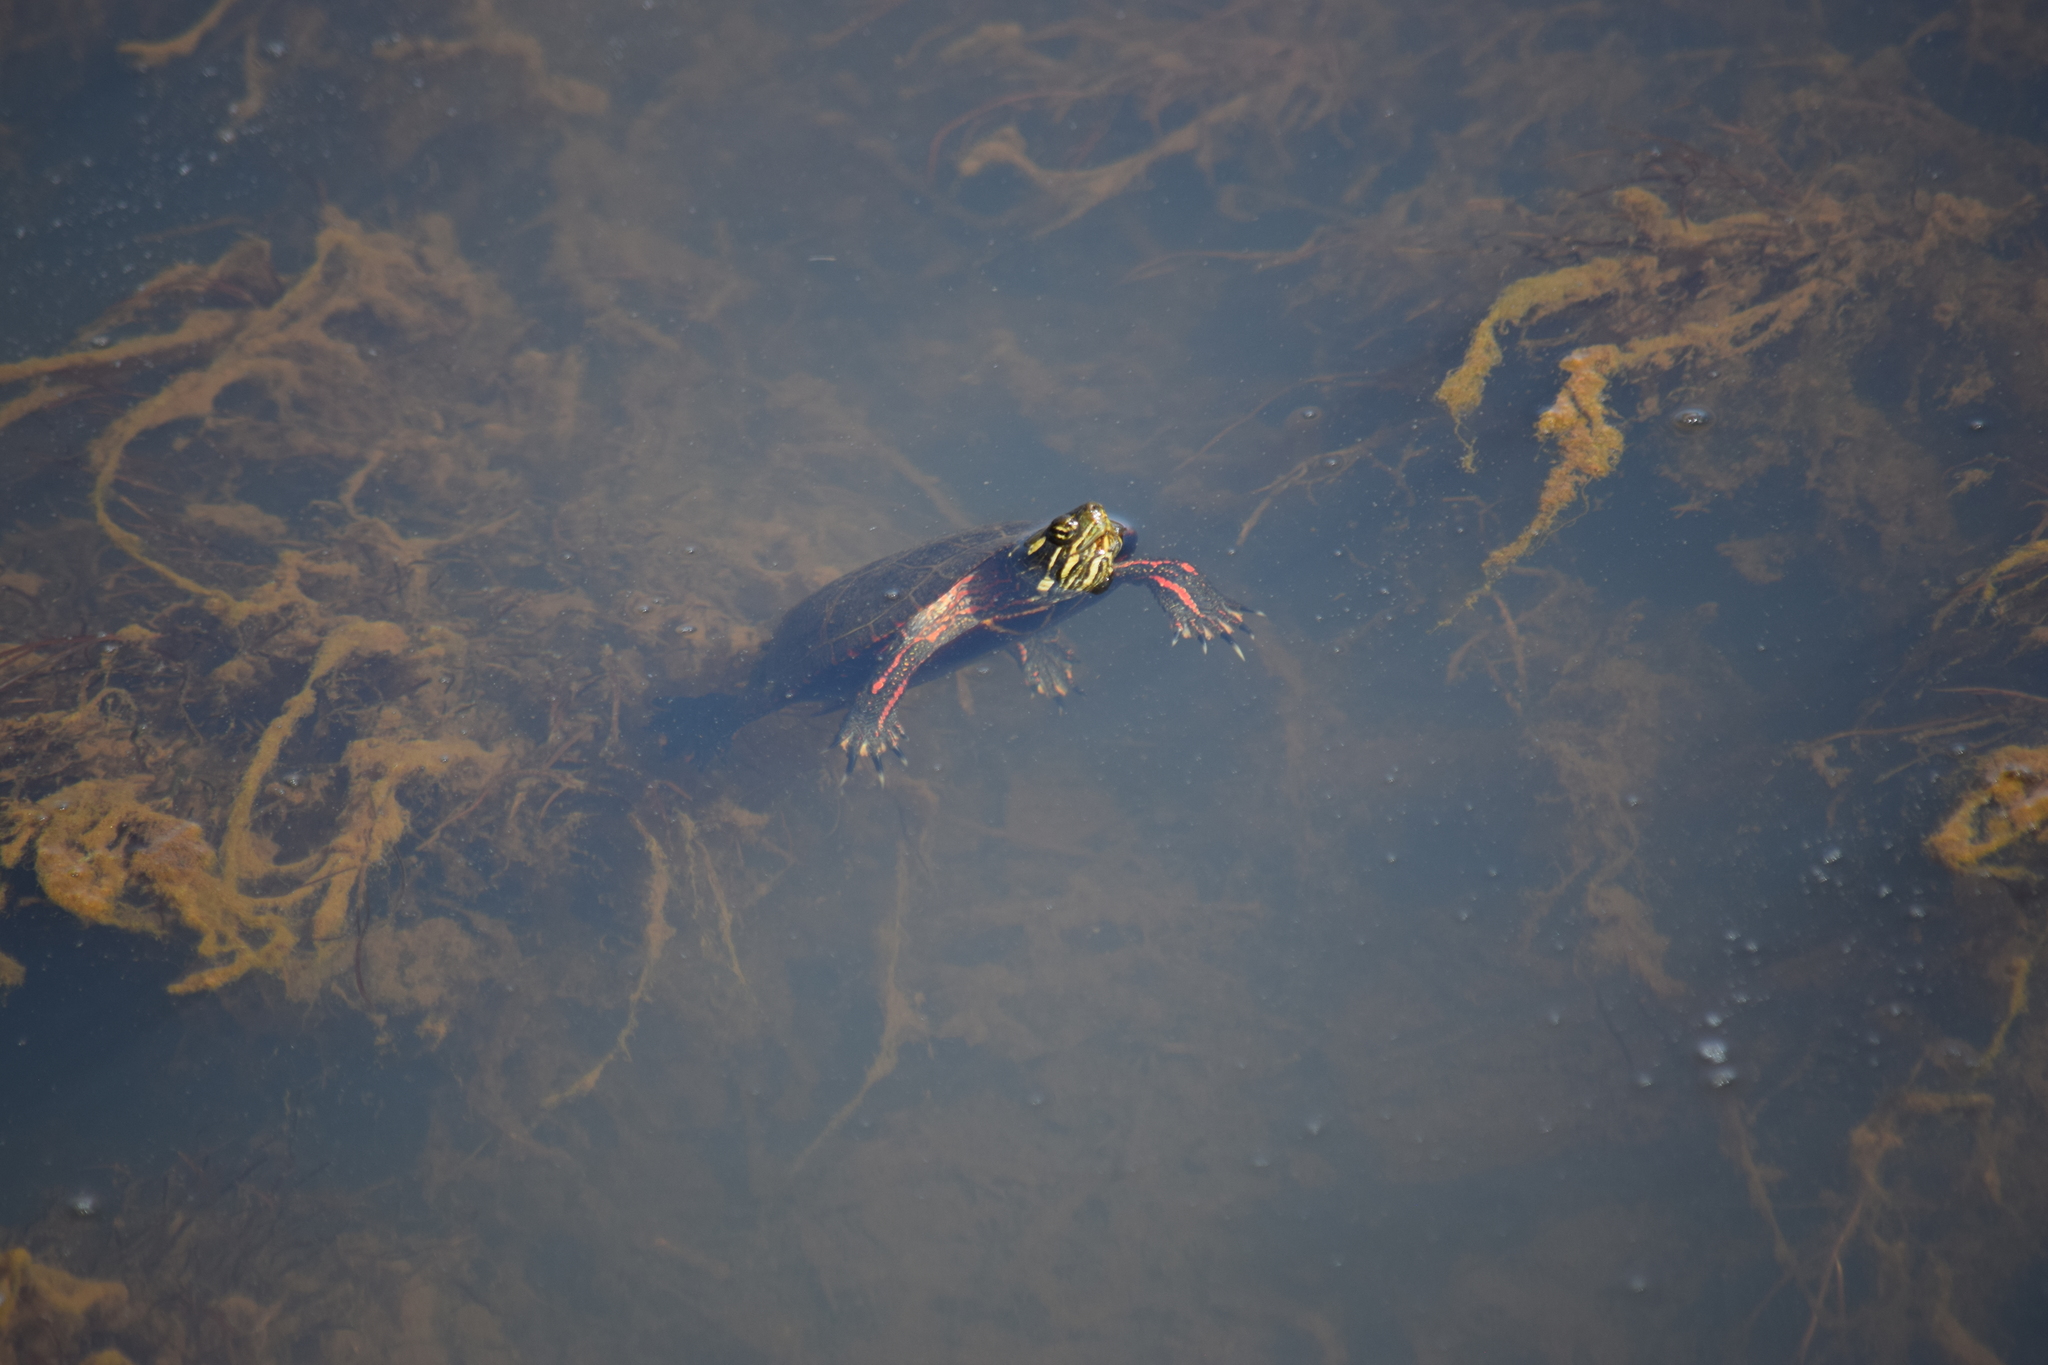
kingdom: Animalia
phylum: Chordata
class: Testudines
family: Emydidae
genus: Chrysemys
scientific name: Chrysemys picta
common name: Painted turtle
